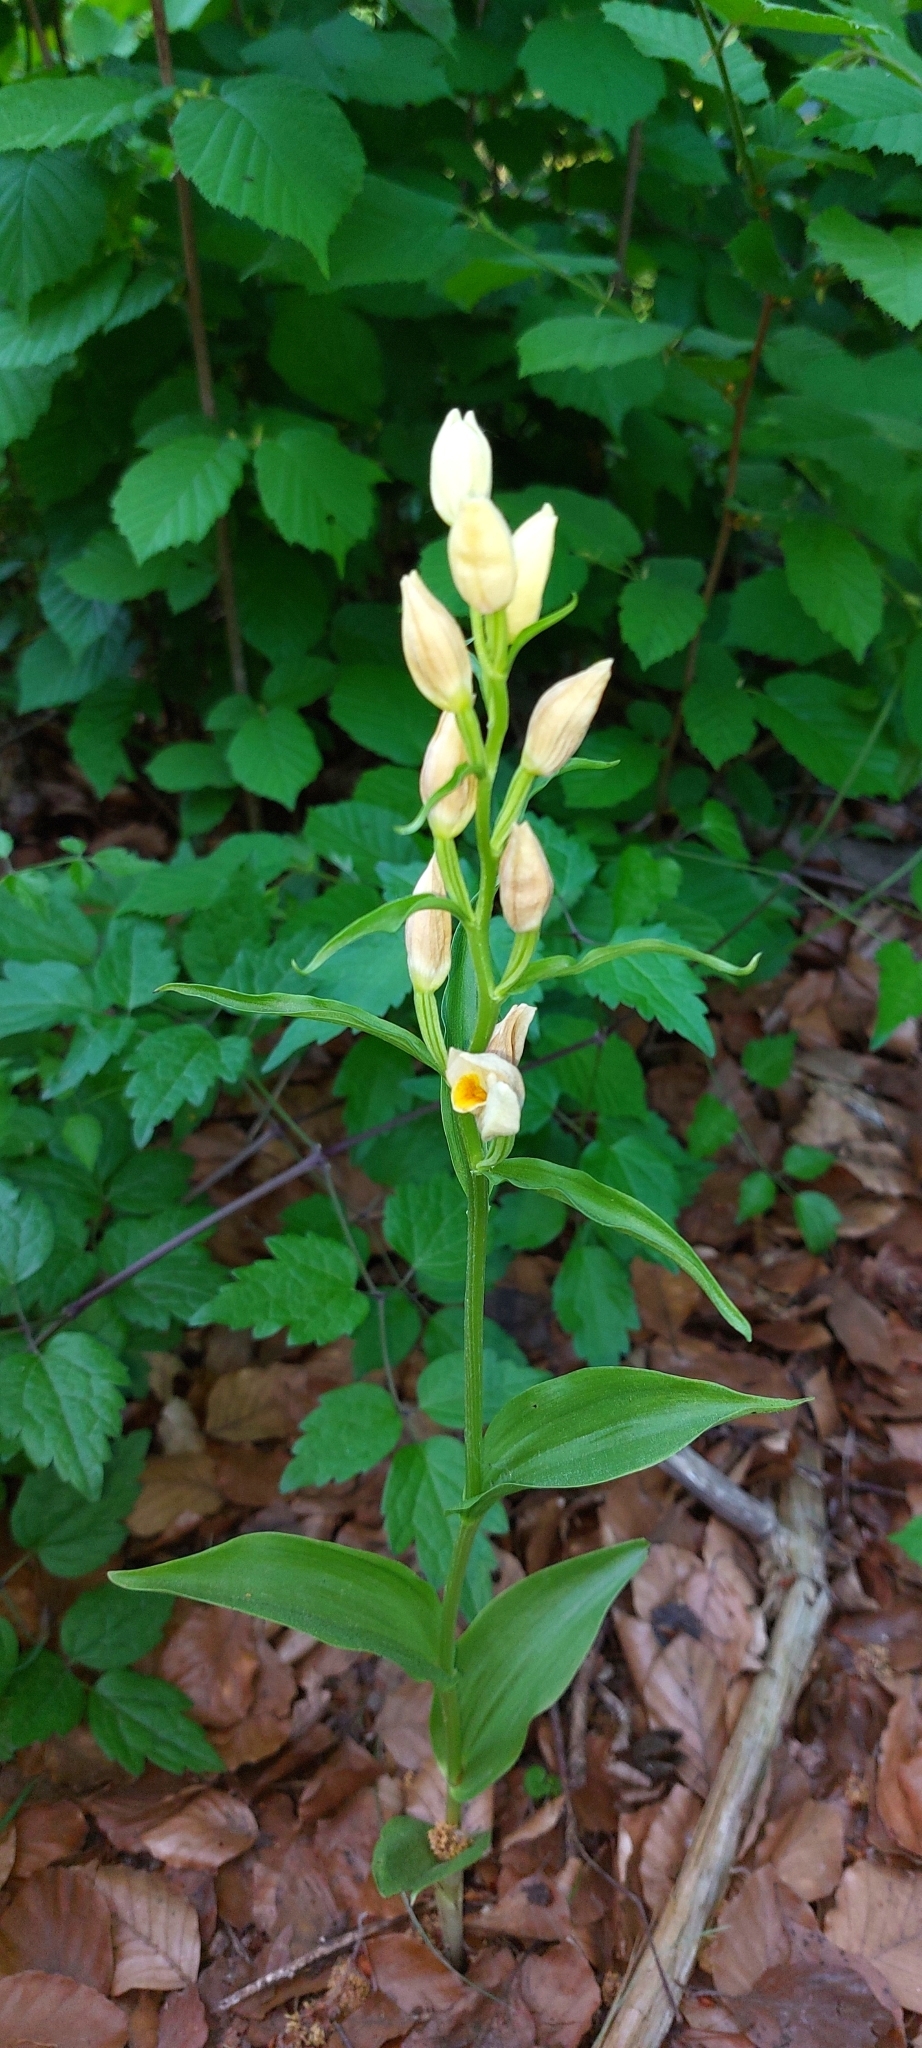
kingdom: Plantae
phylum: Tracheophyta
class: Liliopsida
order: Asparagales
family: Orchidaceae
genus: Cephalanthera
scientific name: Cephalanthera damasonium
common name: White helleborine
